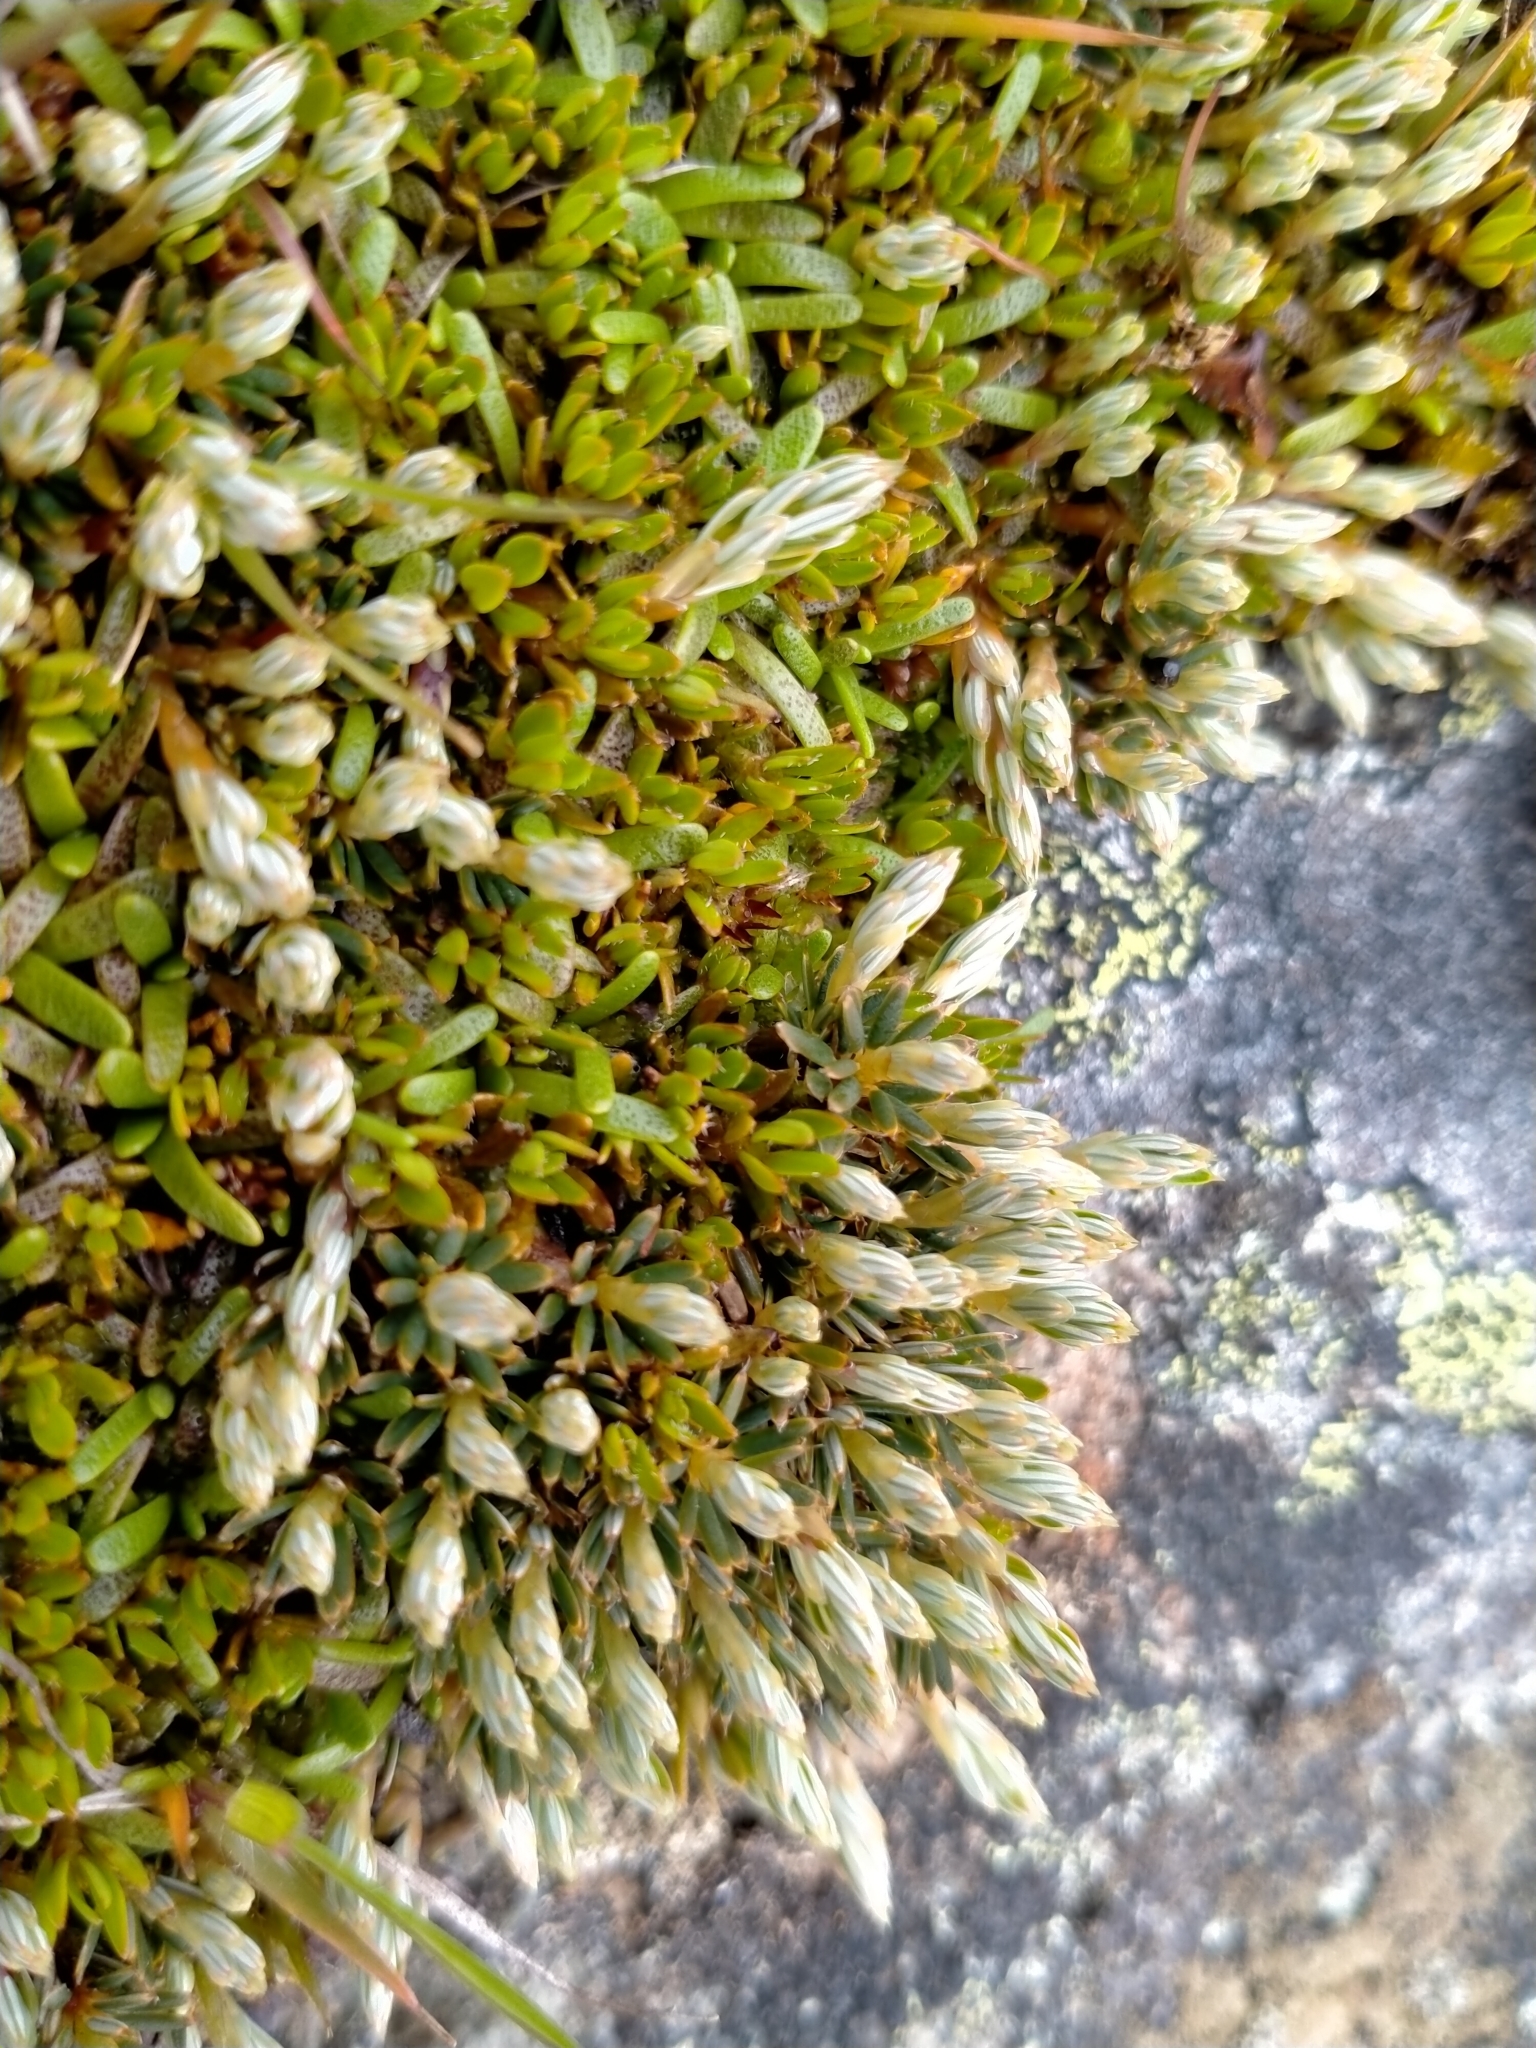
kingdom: Plantae
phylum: Tracheophyta
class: Magnoliopsida
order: Ericales
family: Ericaceae
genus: Montitega
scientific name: Montitega dealbata
